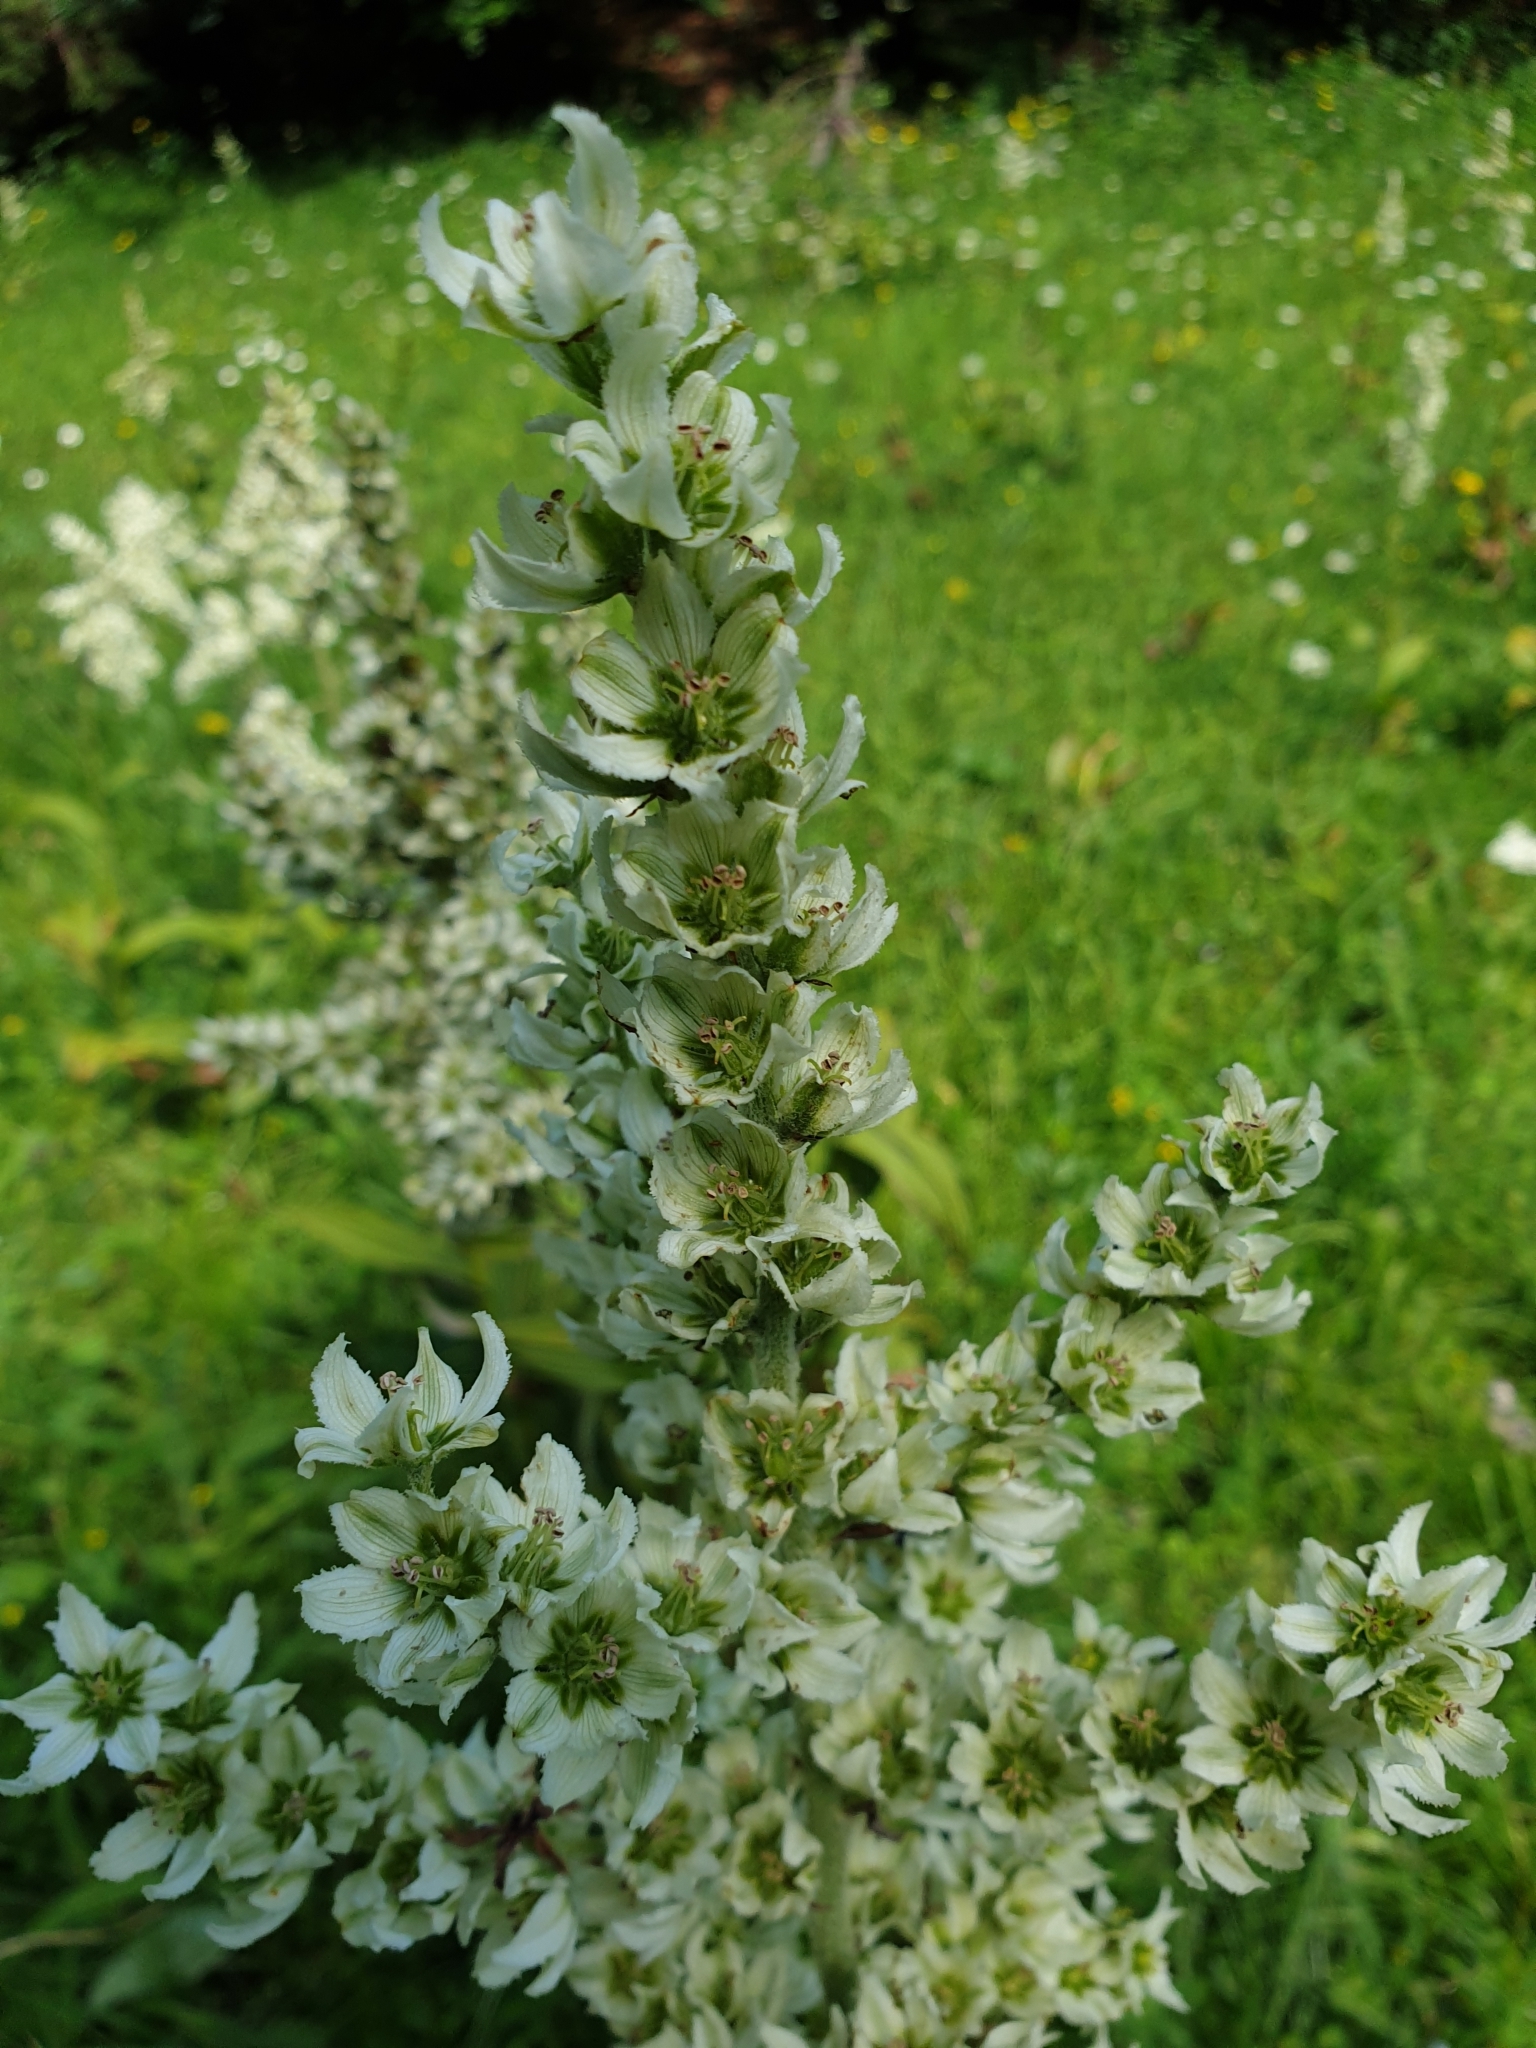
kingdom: Plantae
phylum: Tracheophyta
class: Liliopsida
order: Liliales
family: Melanthiaceae
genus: Veratrum
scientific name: Veratrum album
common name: White veratrum
